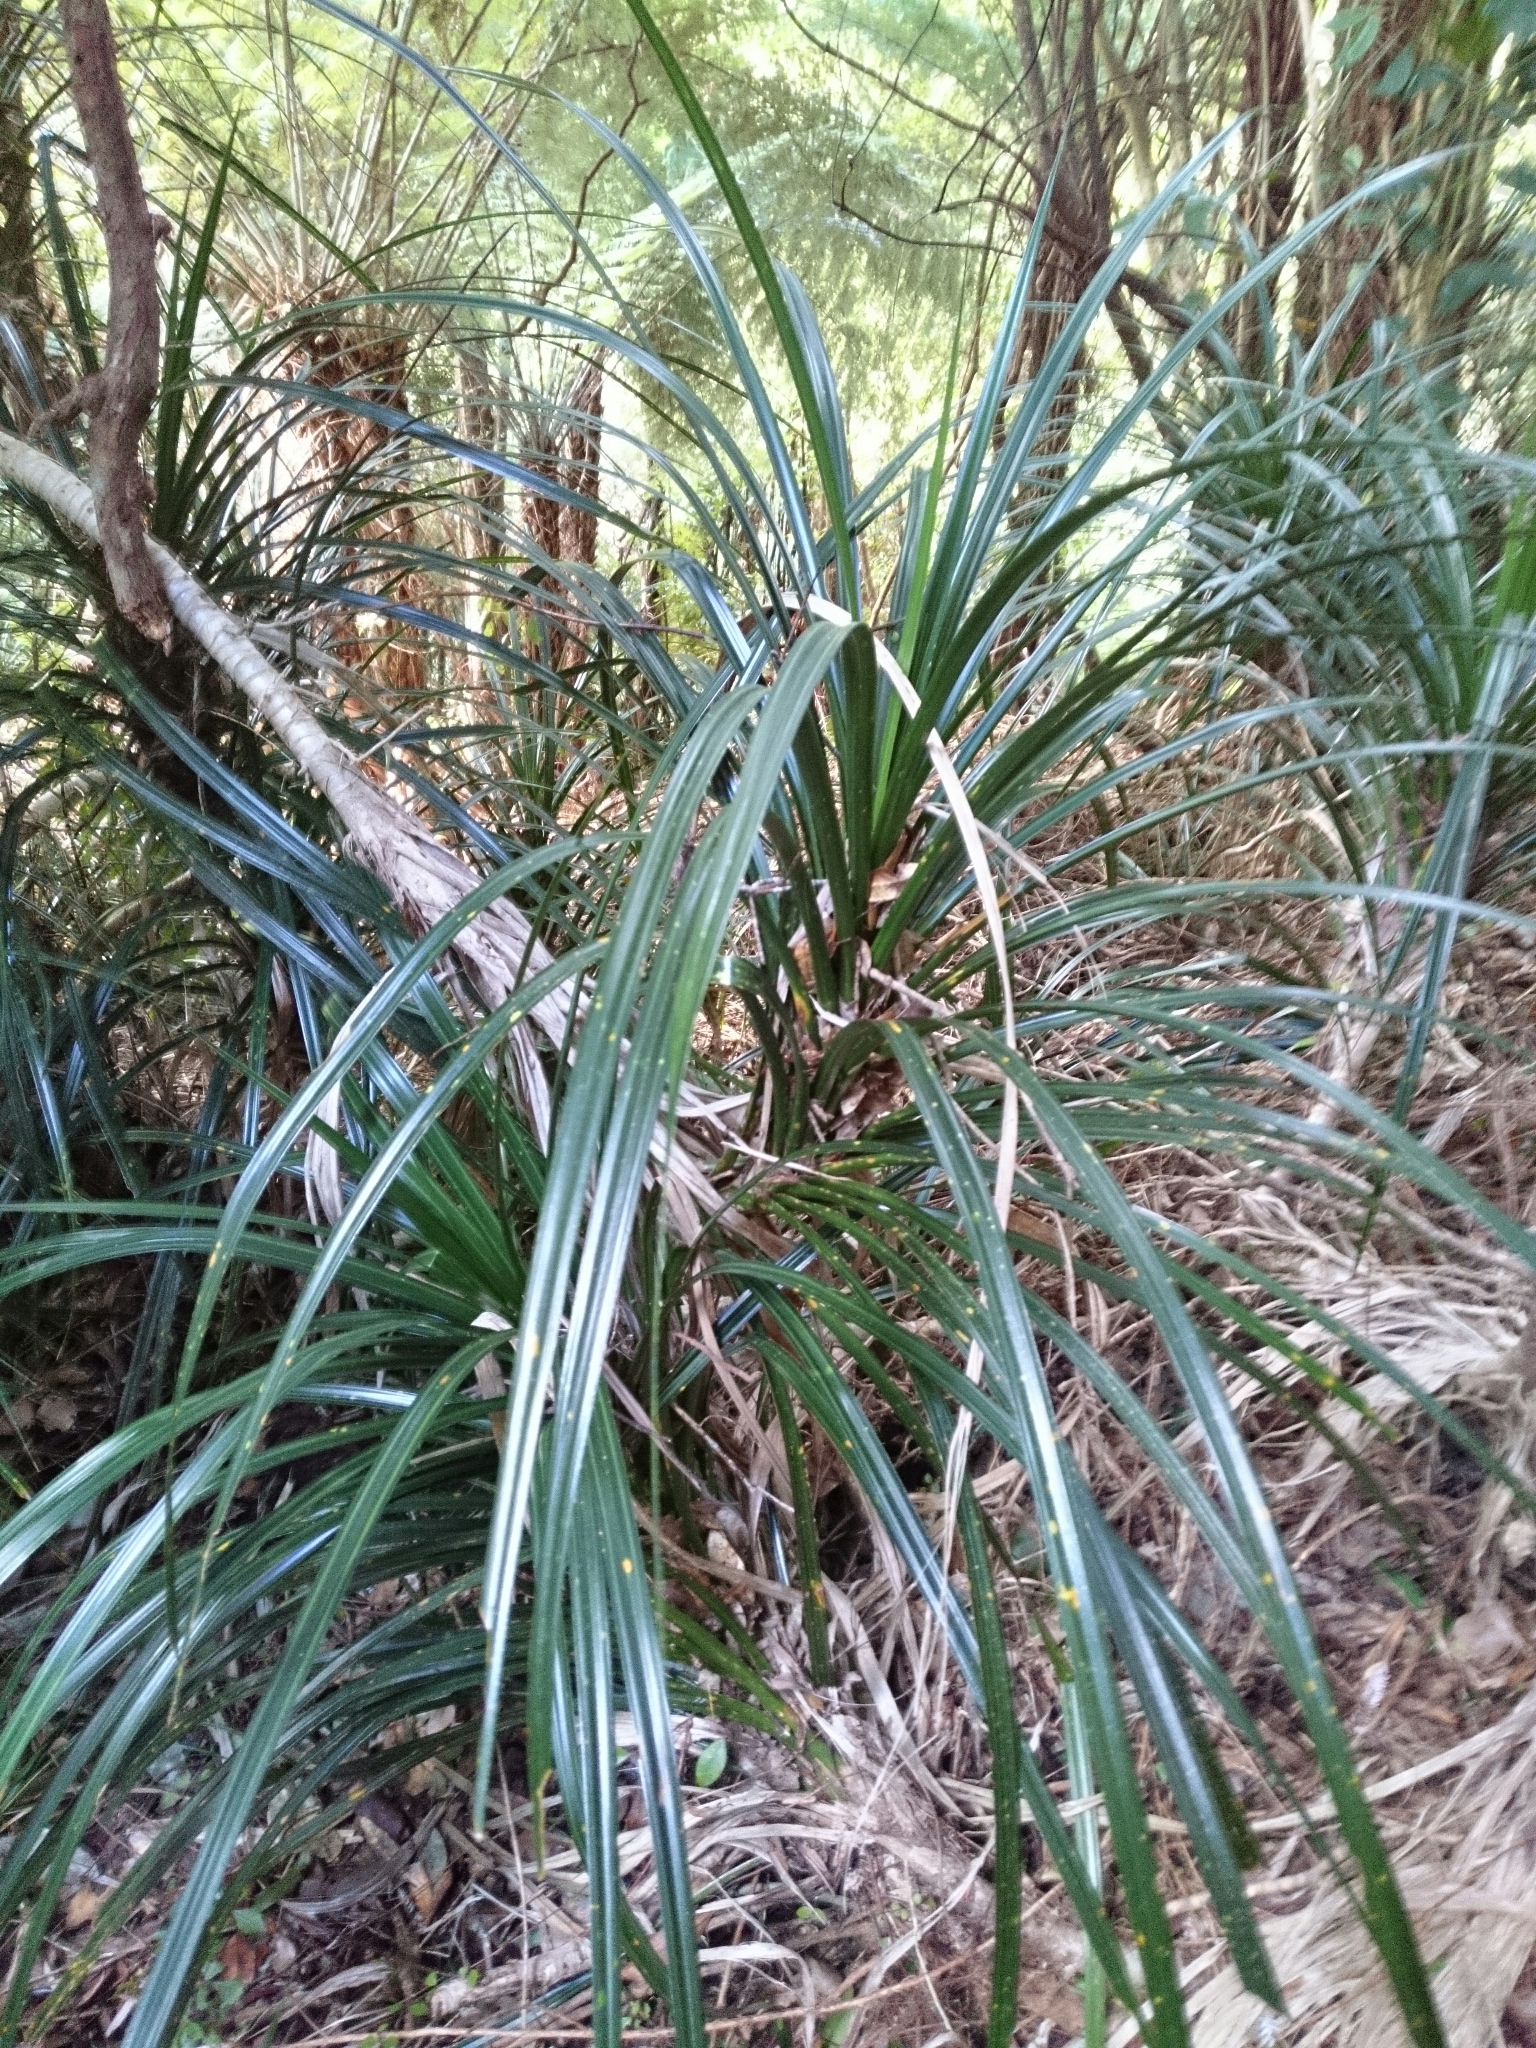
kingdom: Plantae
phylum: Tracheophyta
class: Liliopsida
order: Pandanales
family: Pandanaceae
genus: Freycinetia
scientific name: Freycinetia banksii
